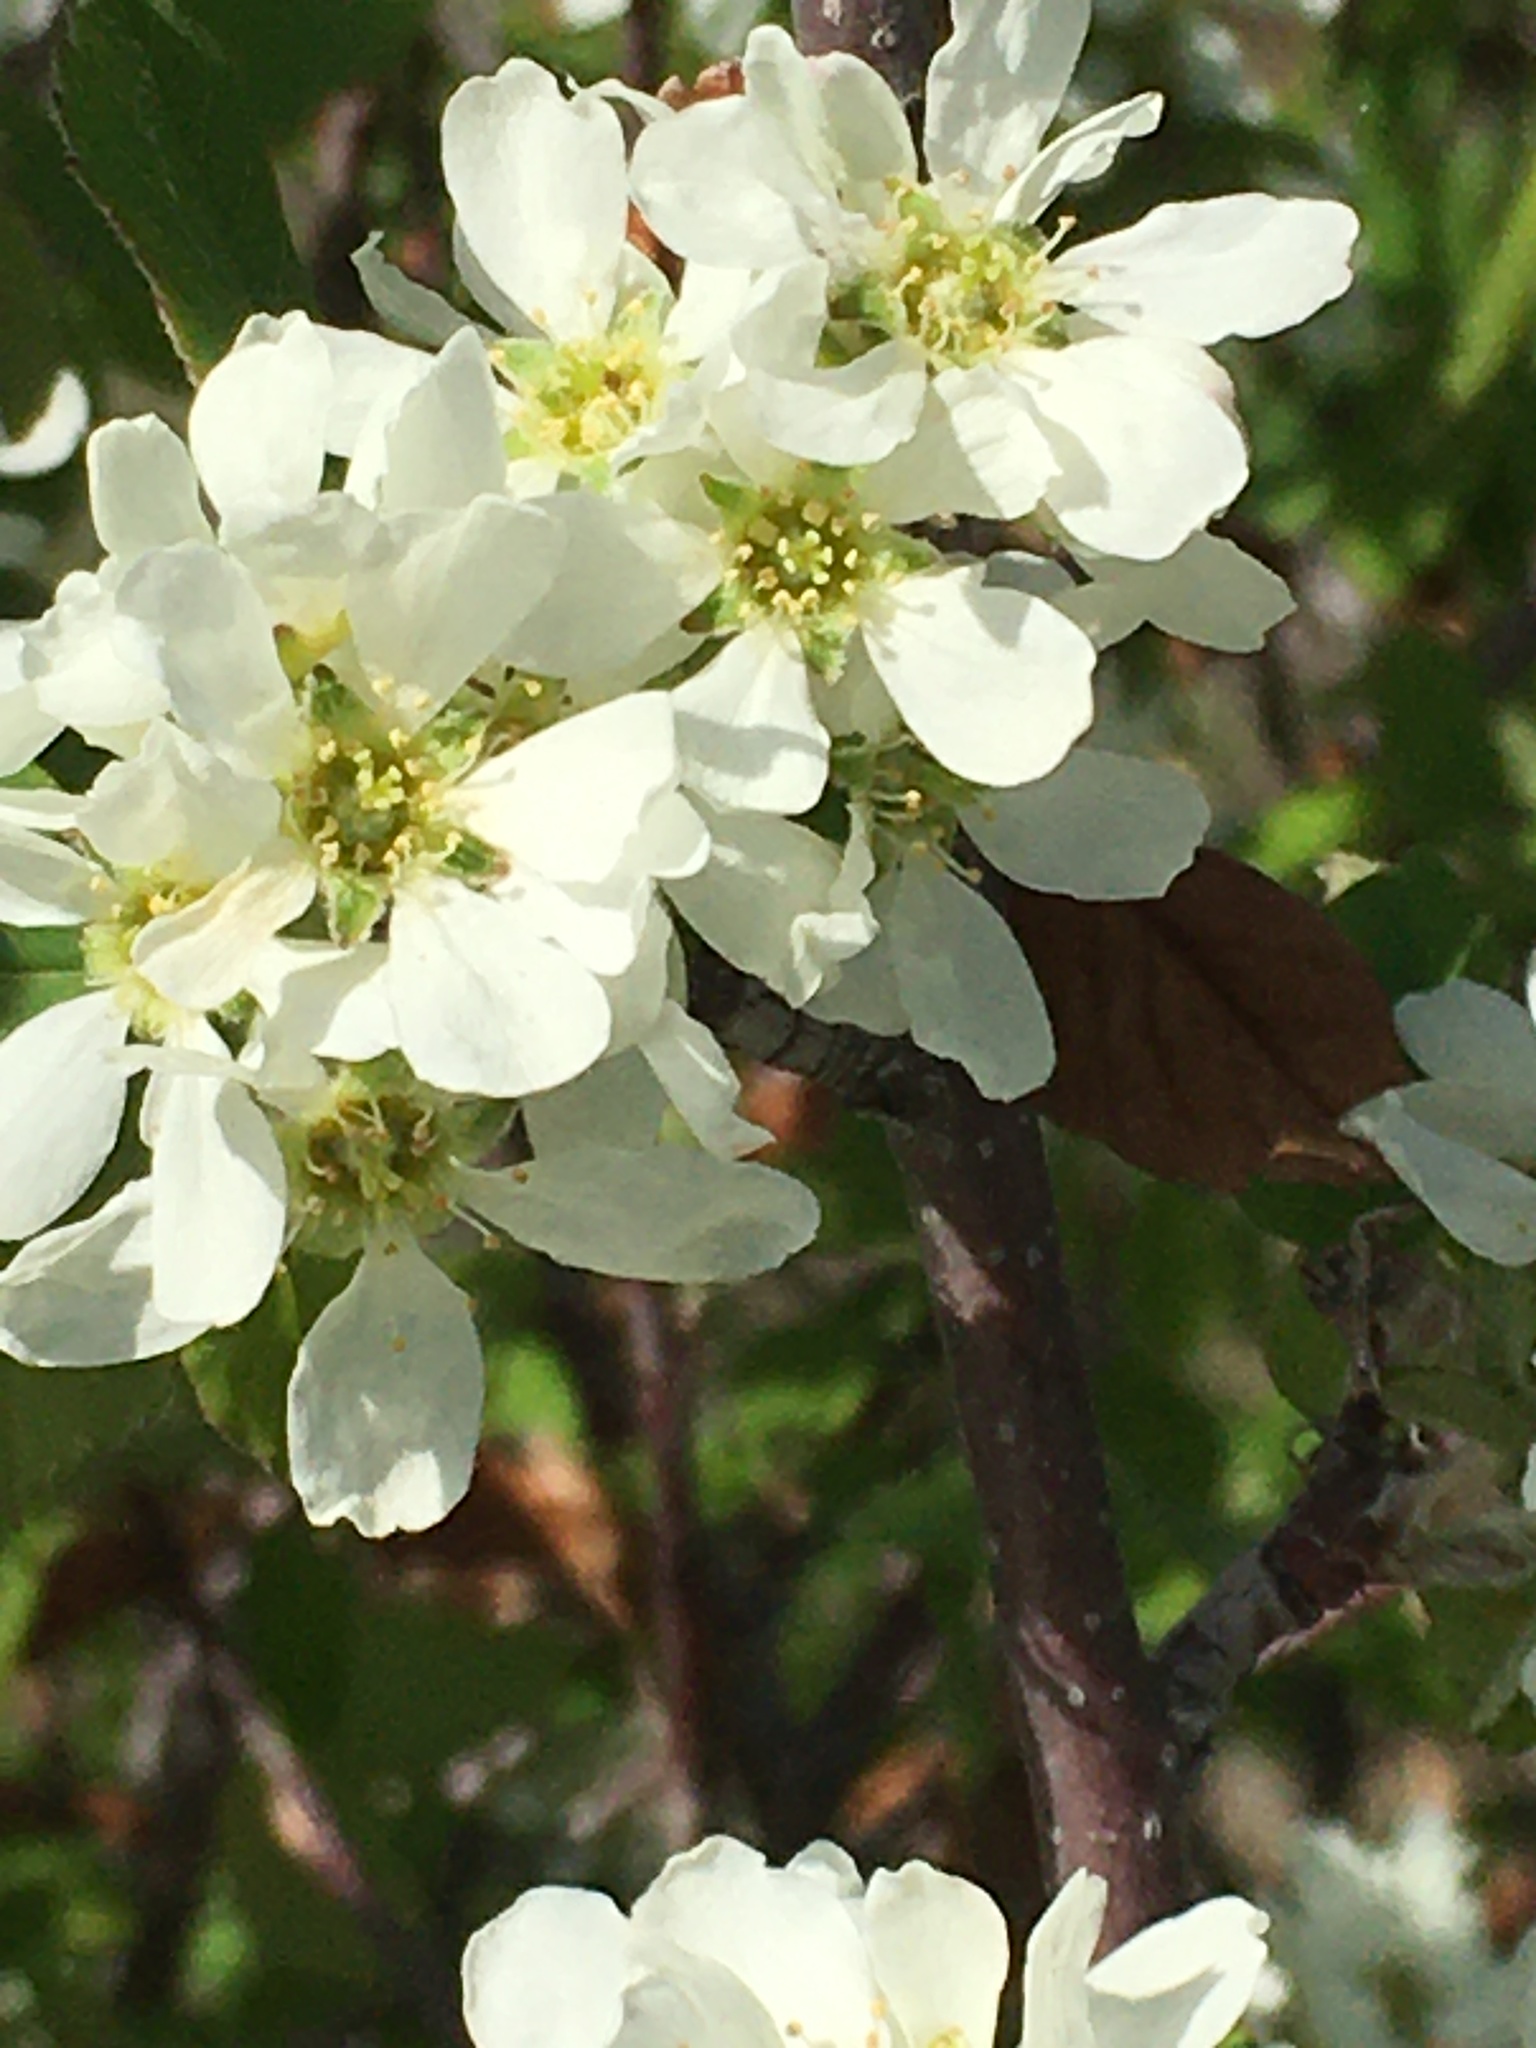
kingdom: Plantae
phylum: Tracheophyta
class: Magnoliopsida
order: Rosales
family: Rosaceae
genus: Amelanchier
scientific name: Amelanchier alnifolia
